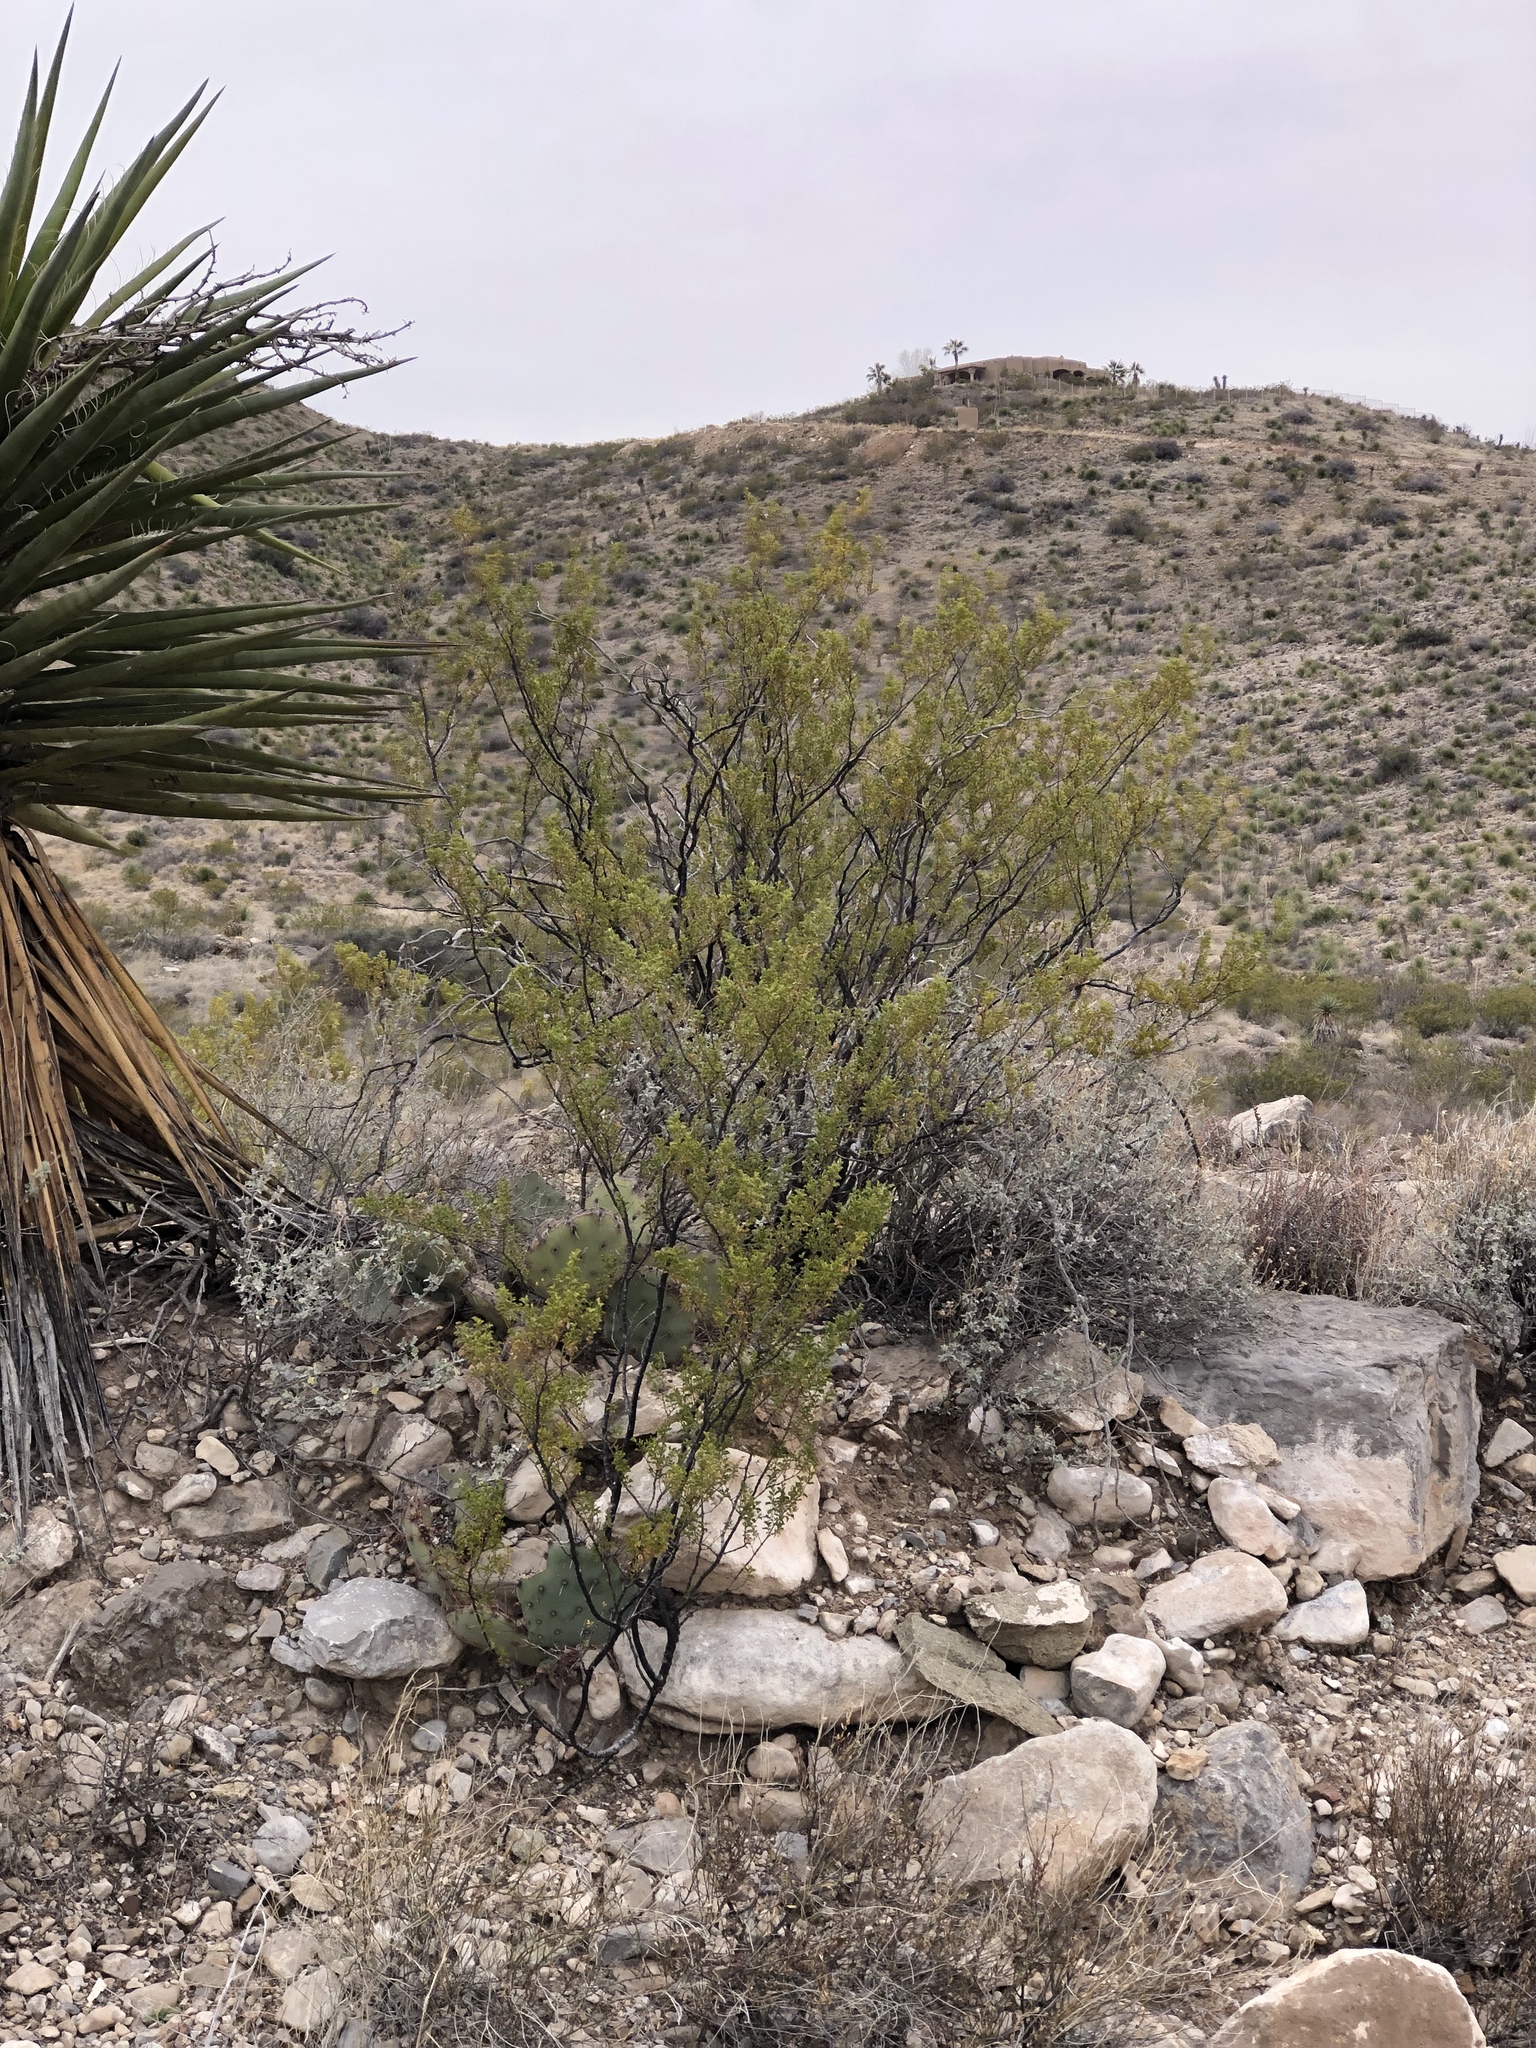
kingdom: Plantae
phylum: Tracheophyta
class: Magnoliopsida
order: Zygophyllales
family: Zygophyllaceae
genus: Larrea
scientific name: Larrea tridentata
